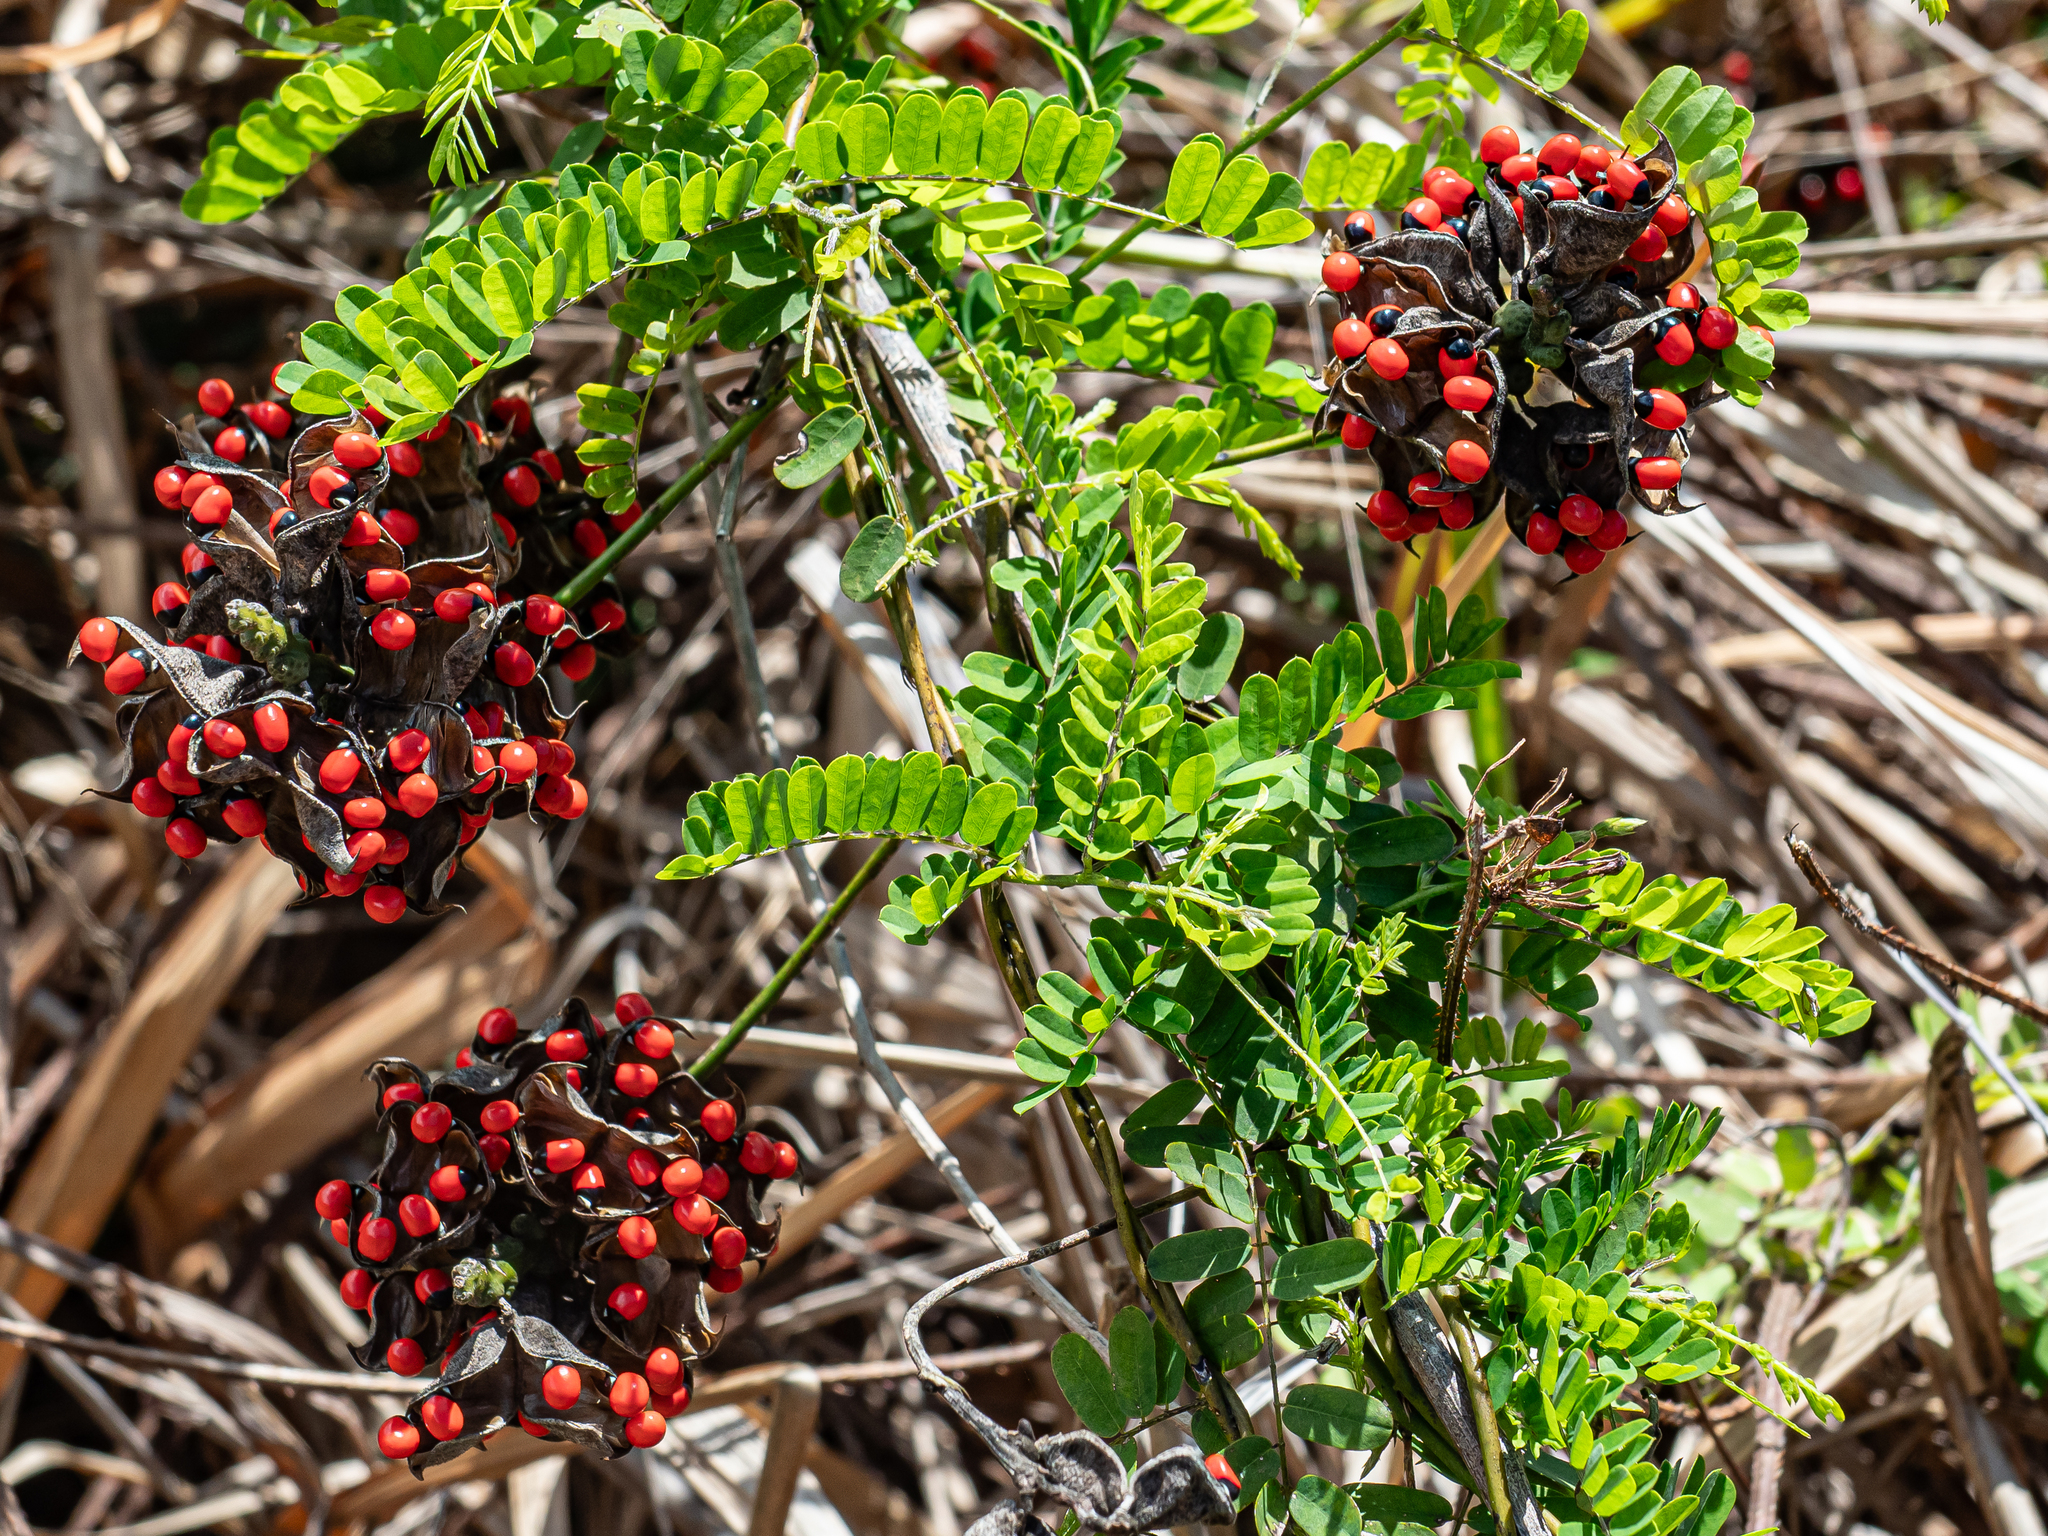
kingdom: Plantae
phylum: Tracheophyta
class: Magnoliopsida
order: Fabales
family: Fabaceae
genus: Abrus
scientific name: Abrus precatorius
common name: Rosarypea
